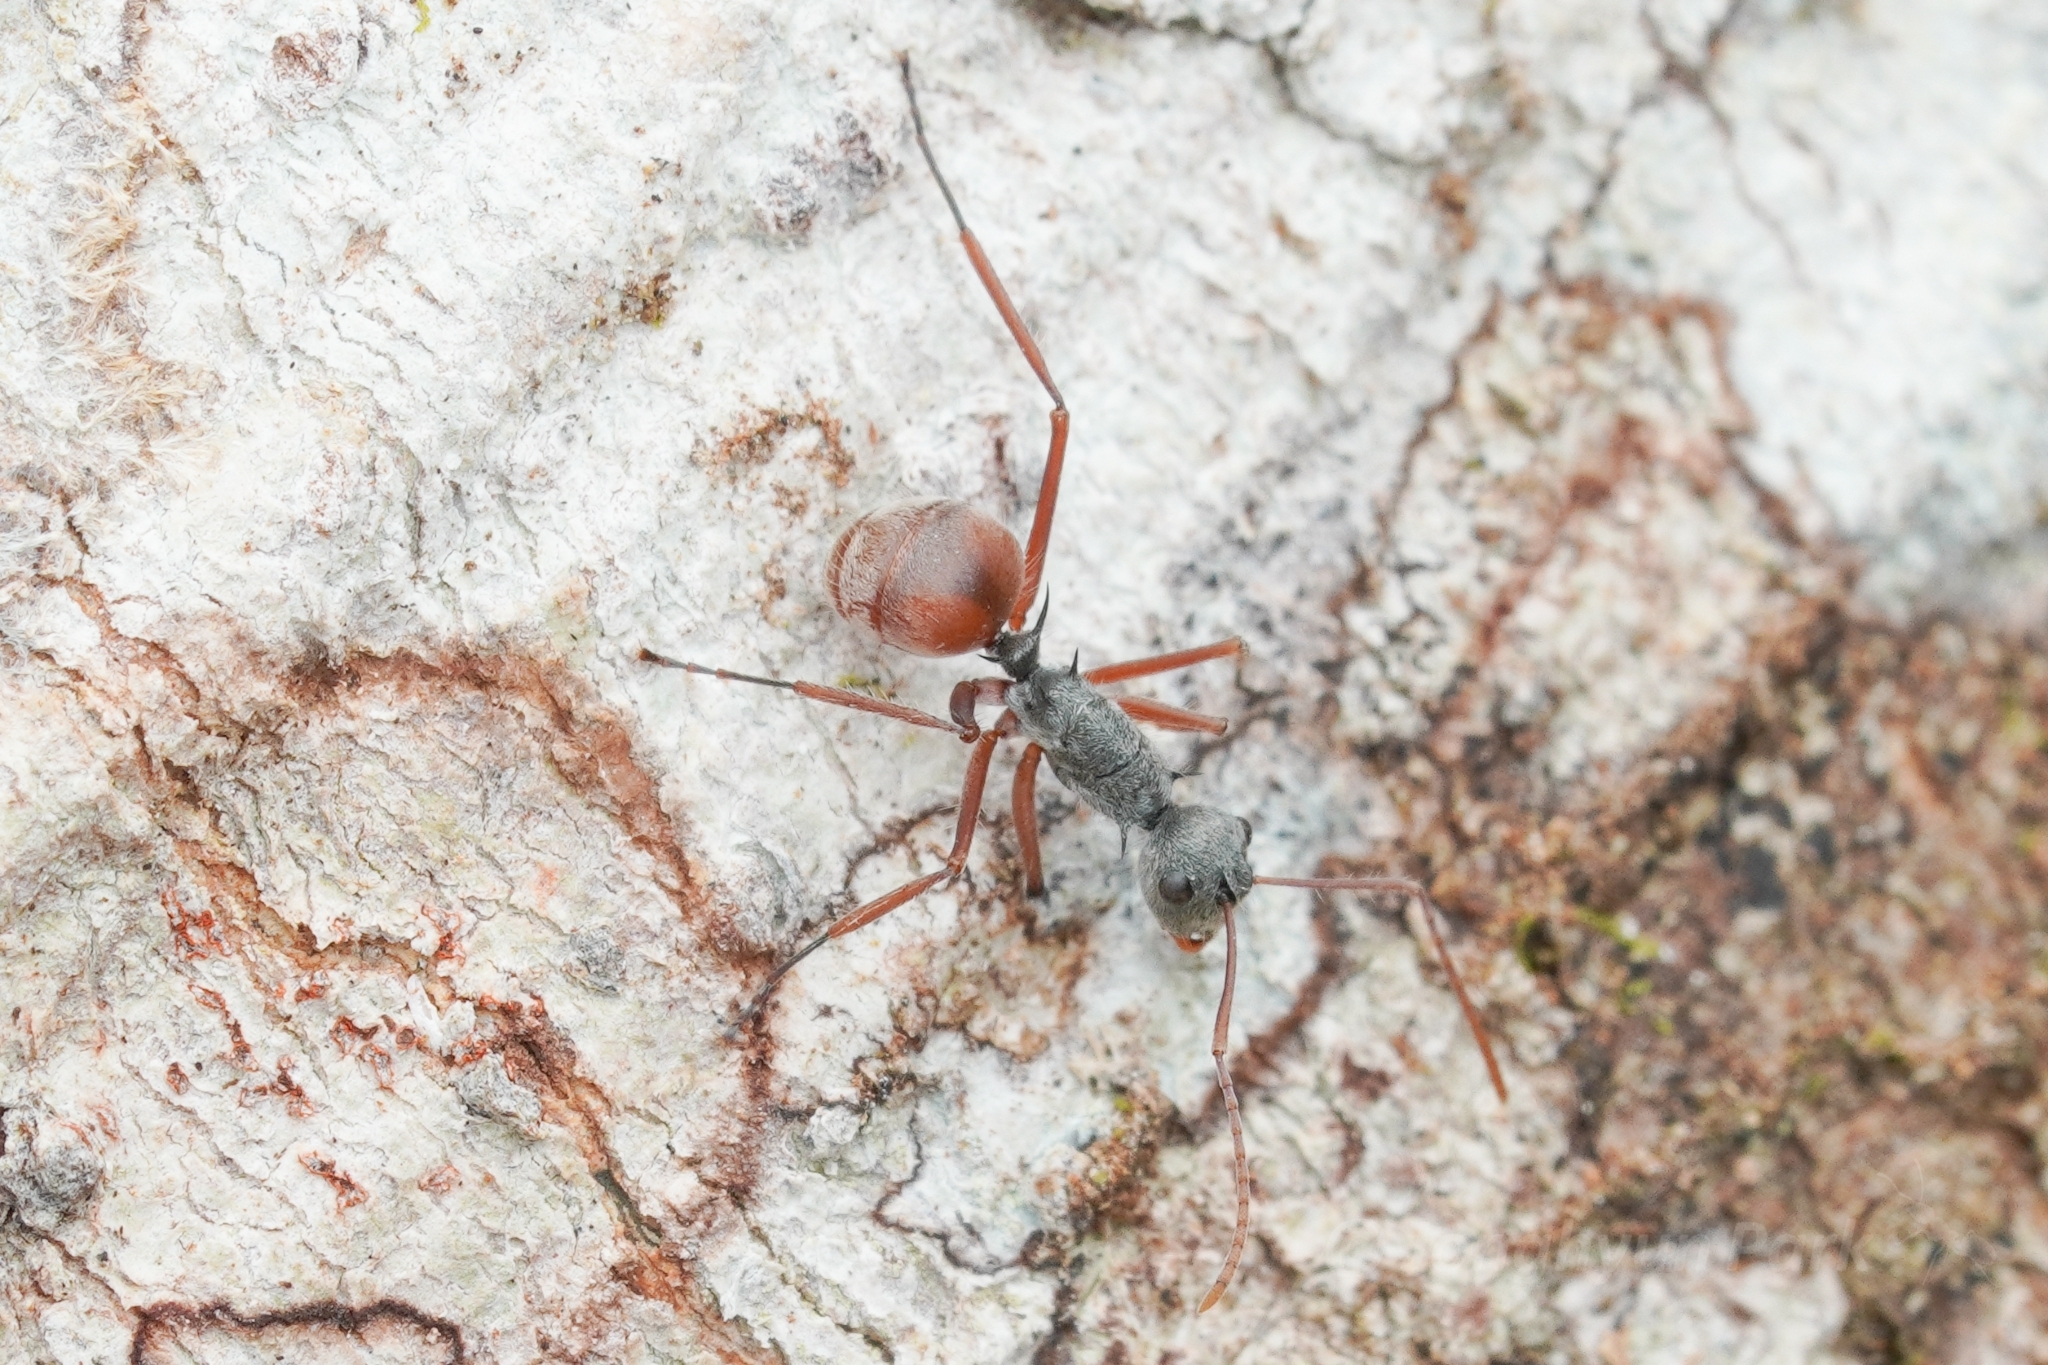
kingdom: Animalia
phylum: Arthropoda
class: Insecta
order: Hymenoptera
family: Formicidae
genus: Polyrhachis
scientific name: Polyrhachis bicolor
